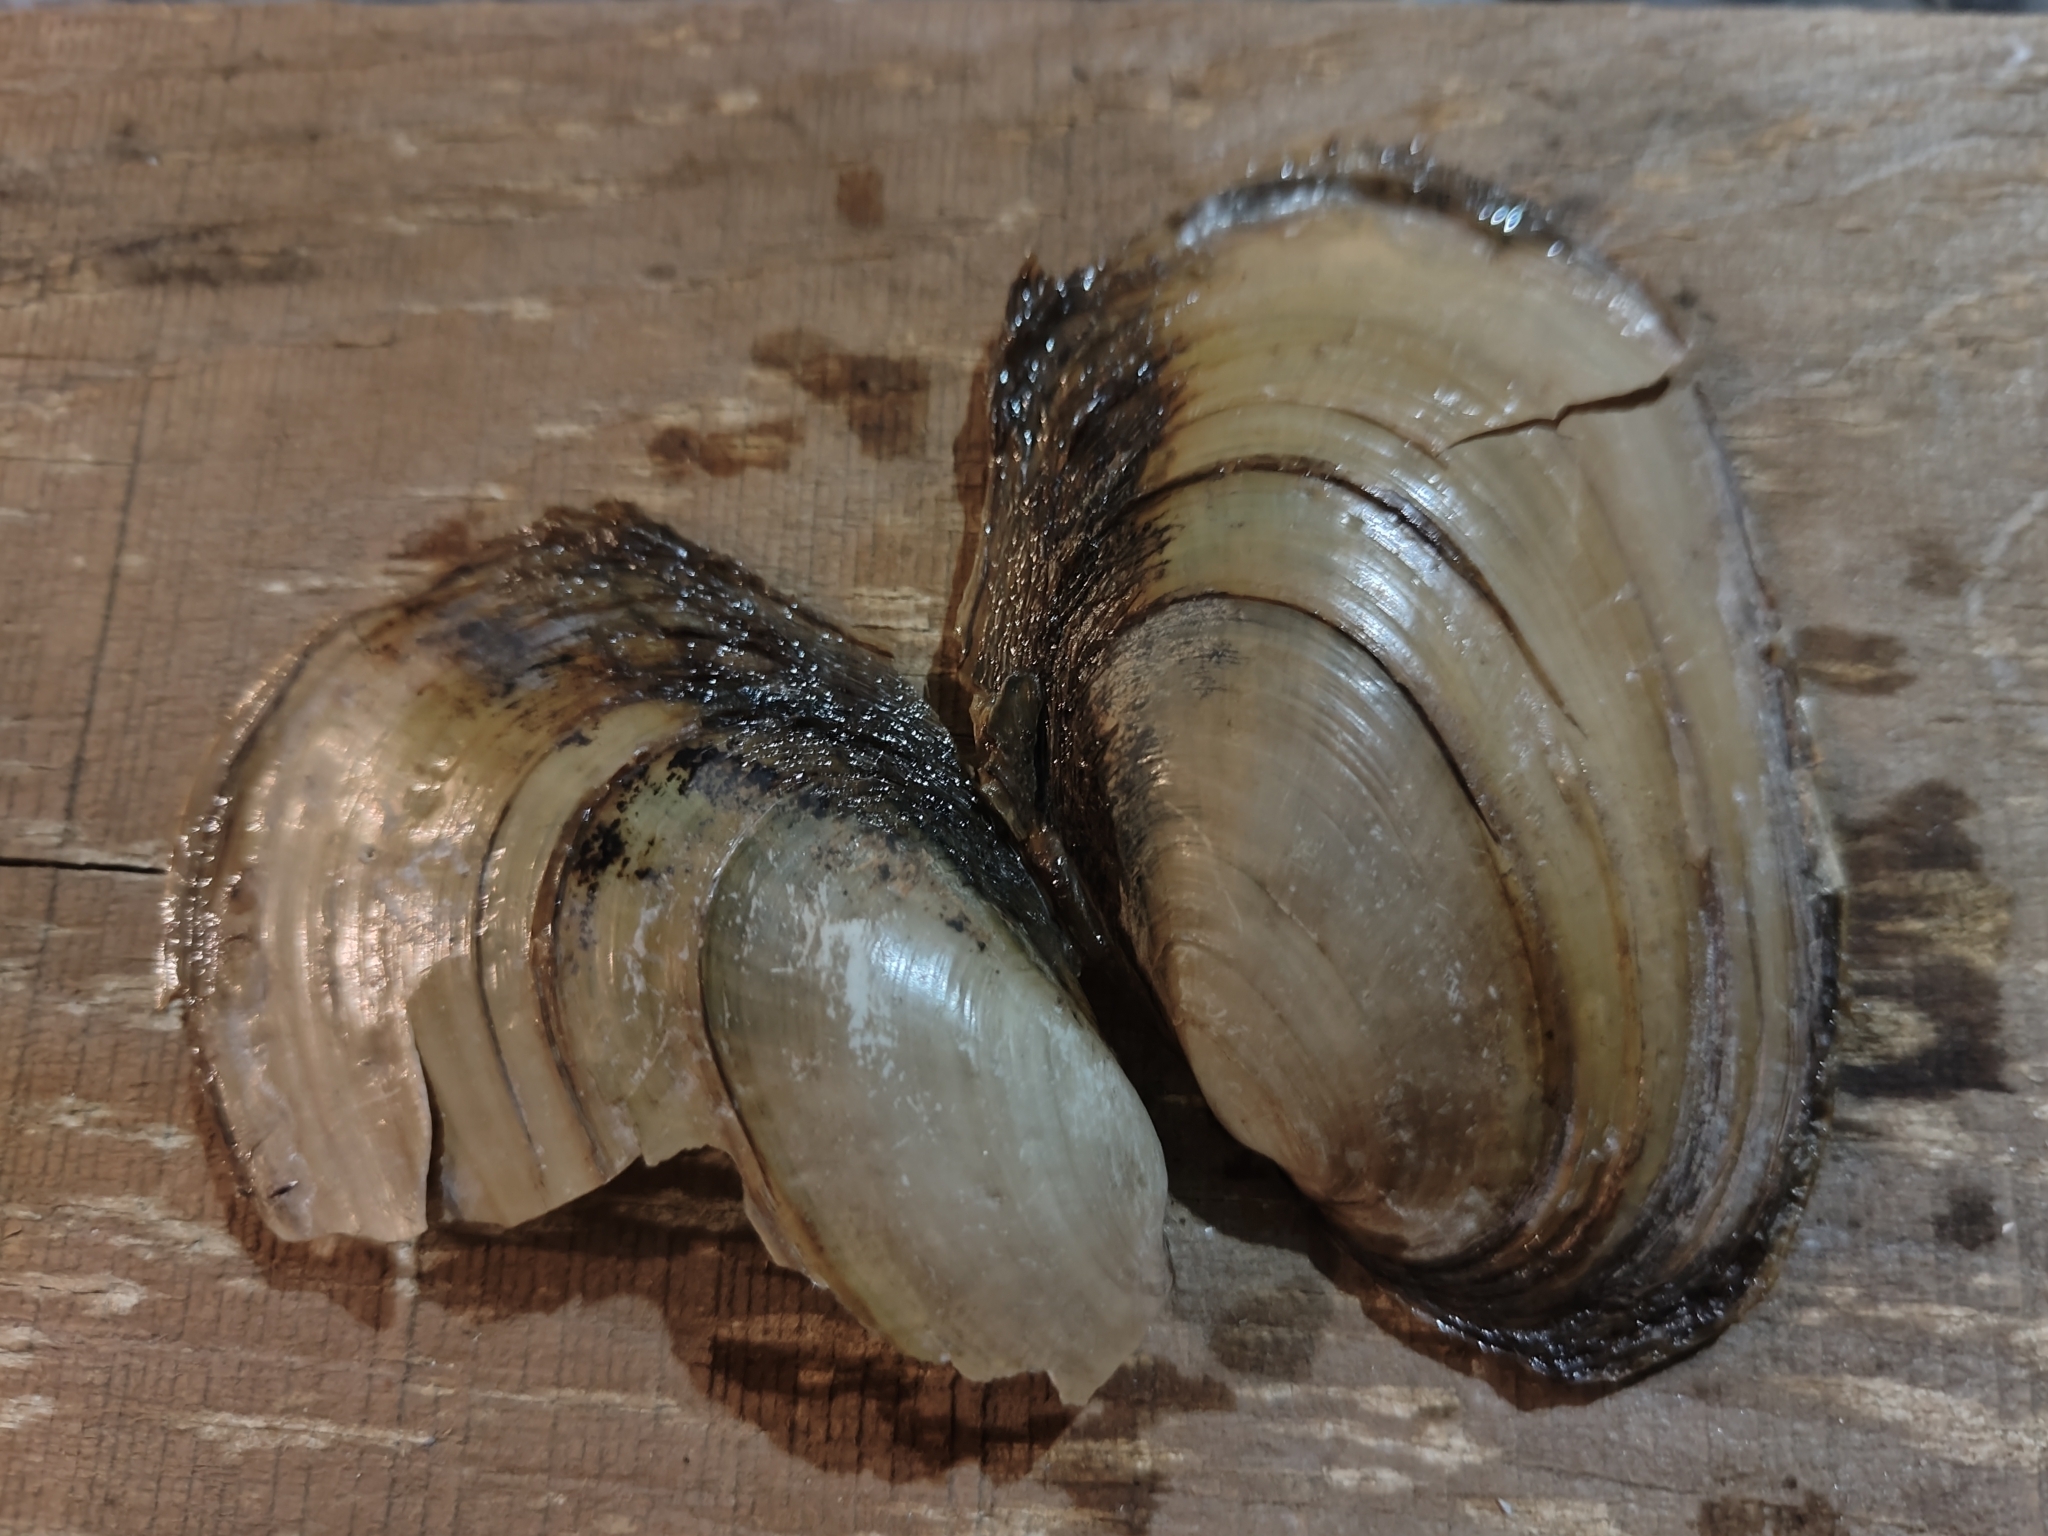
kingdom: Animalia
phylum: Mollusca
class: Bivalvia
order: Unionida
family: Unionidae
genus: Potamilus
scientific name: Potamilus fragilis
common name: Fragile papershell
